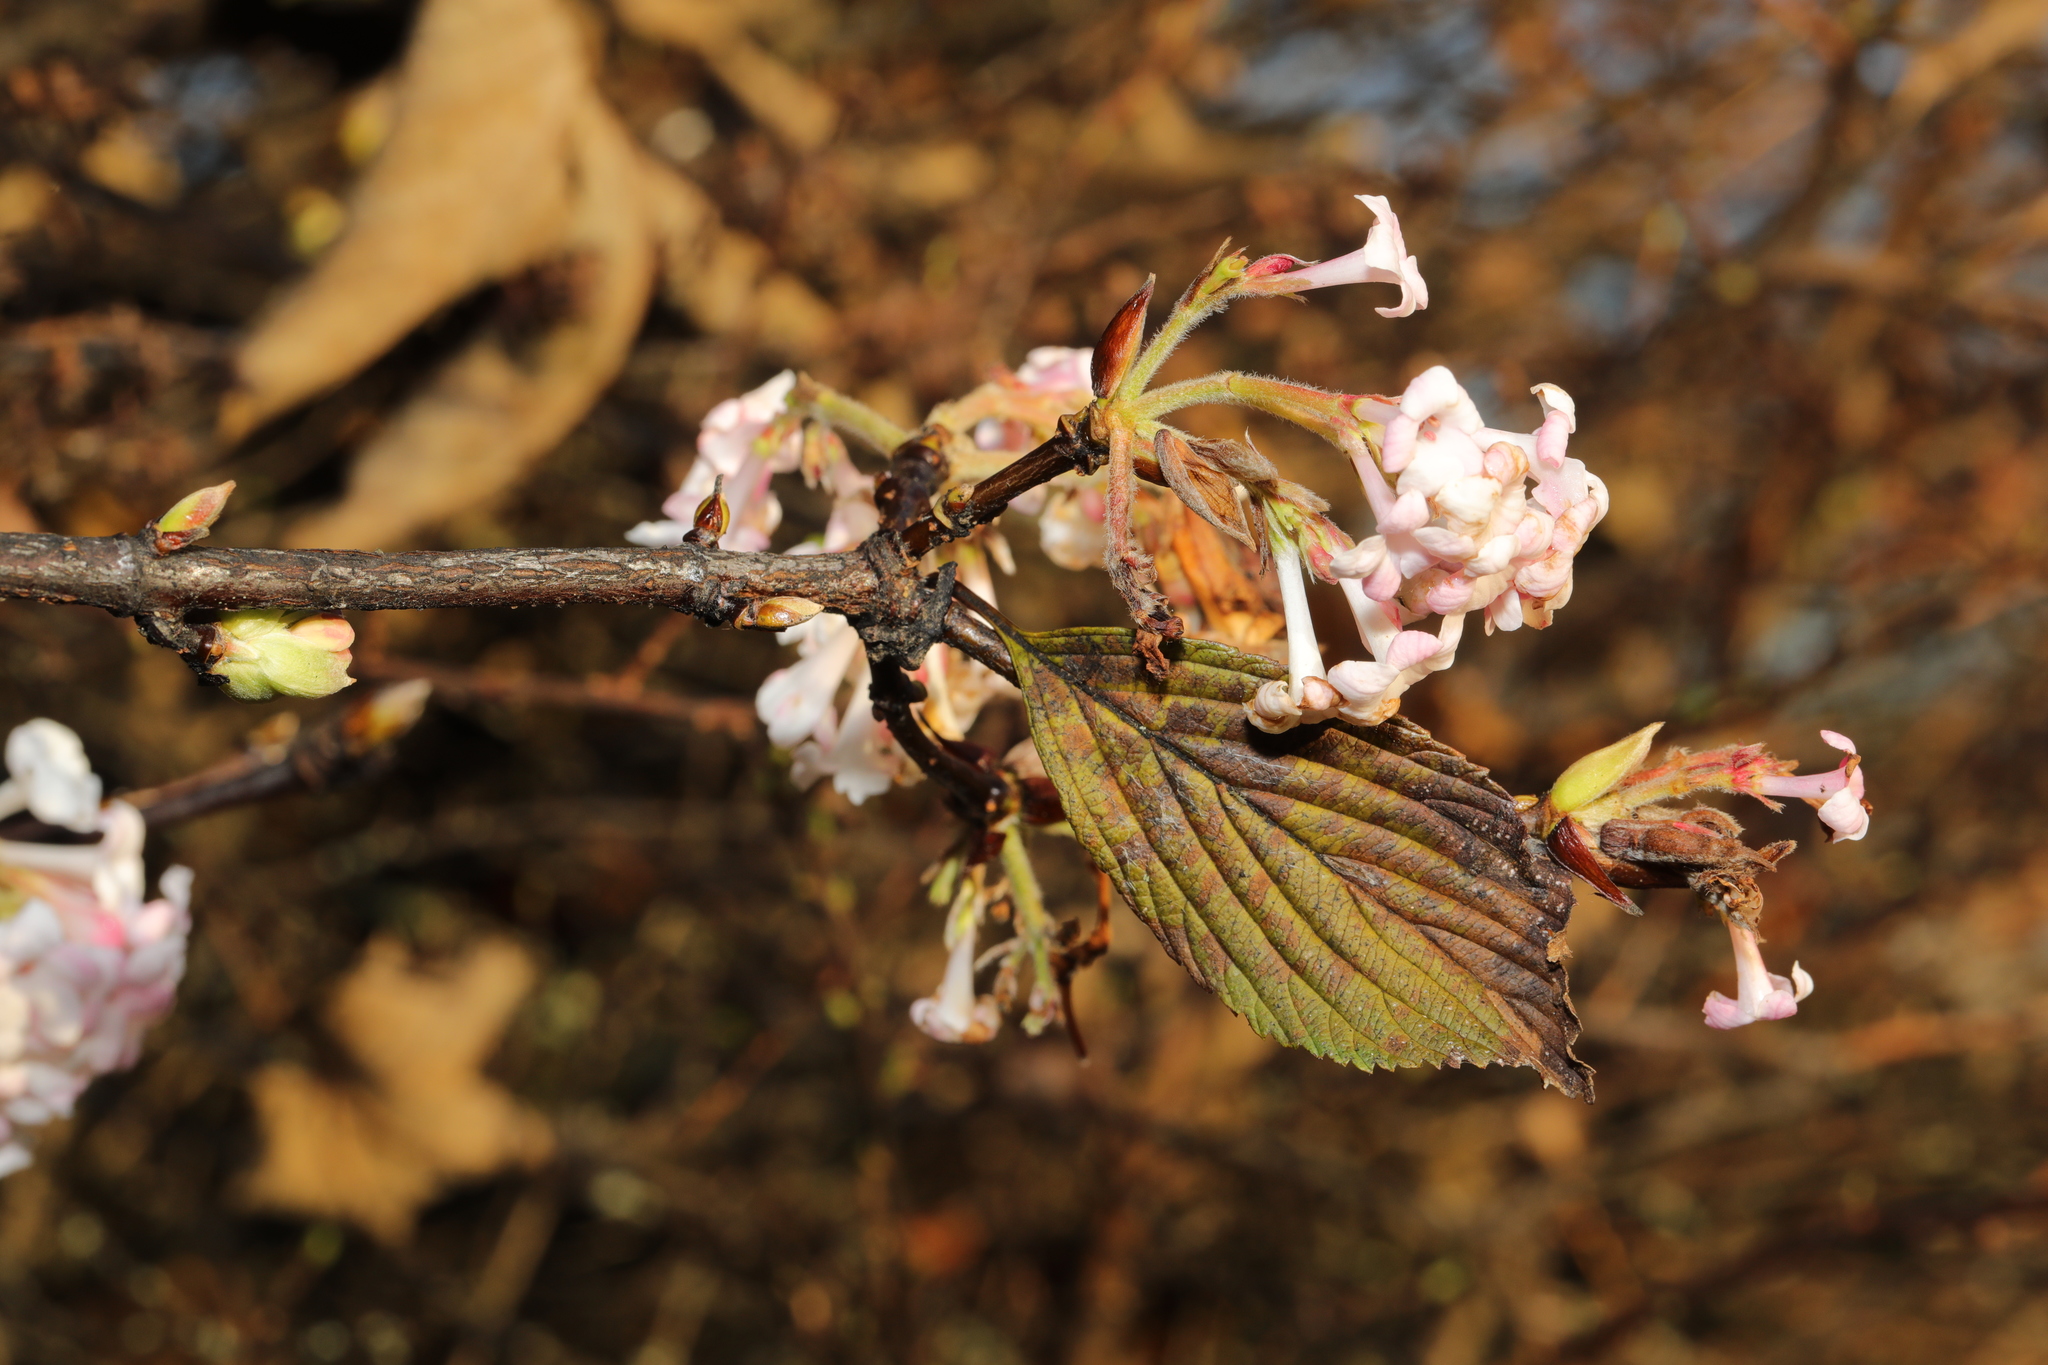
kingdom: Plantae
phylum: Tracheophyta
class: Magnoliopsida
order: Dipsacales
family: Viburnaceae
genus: Viburnum
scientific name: Viburnum bodnantense
